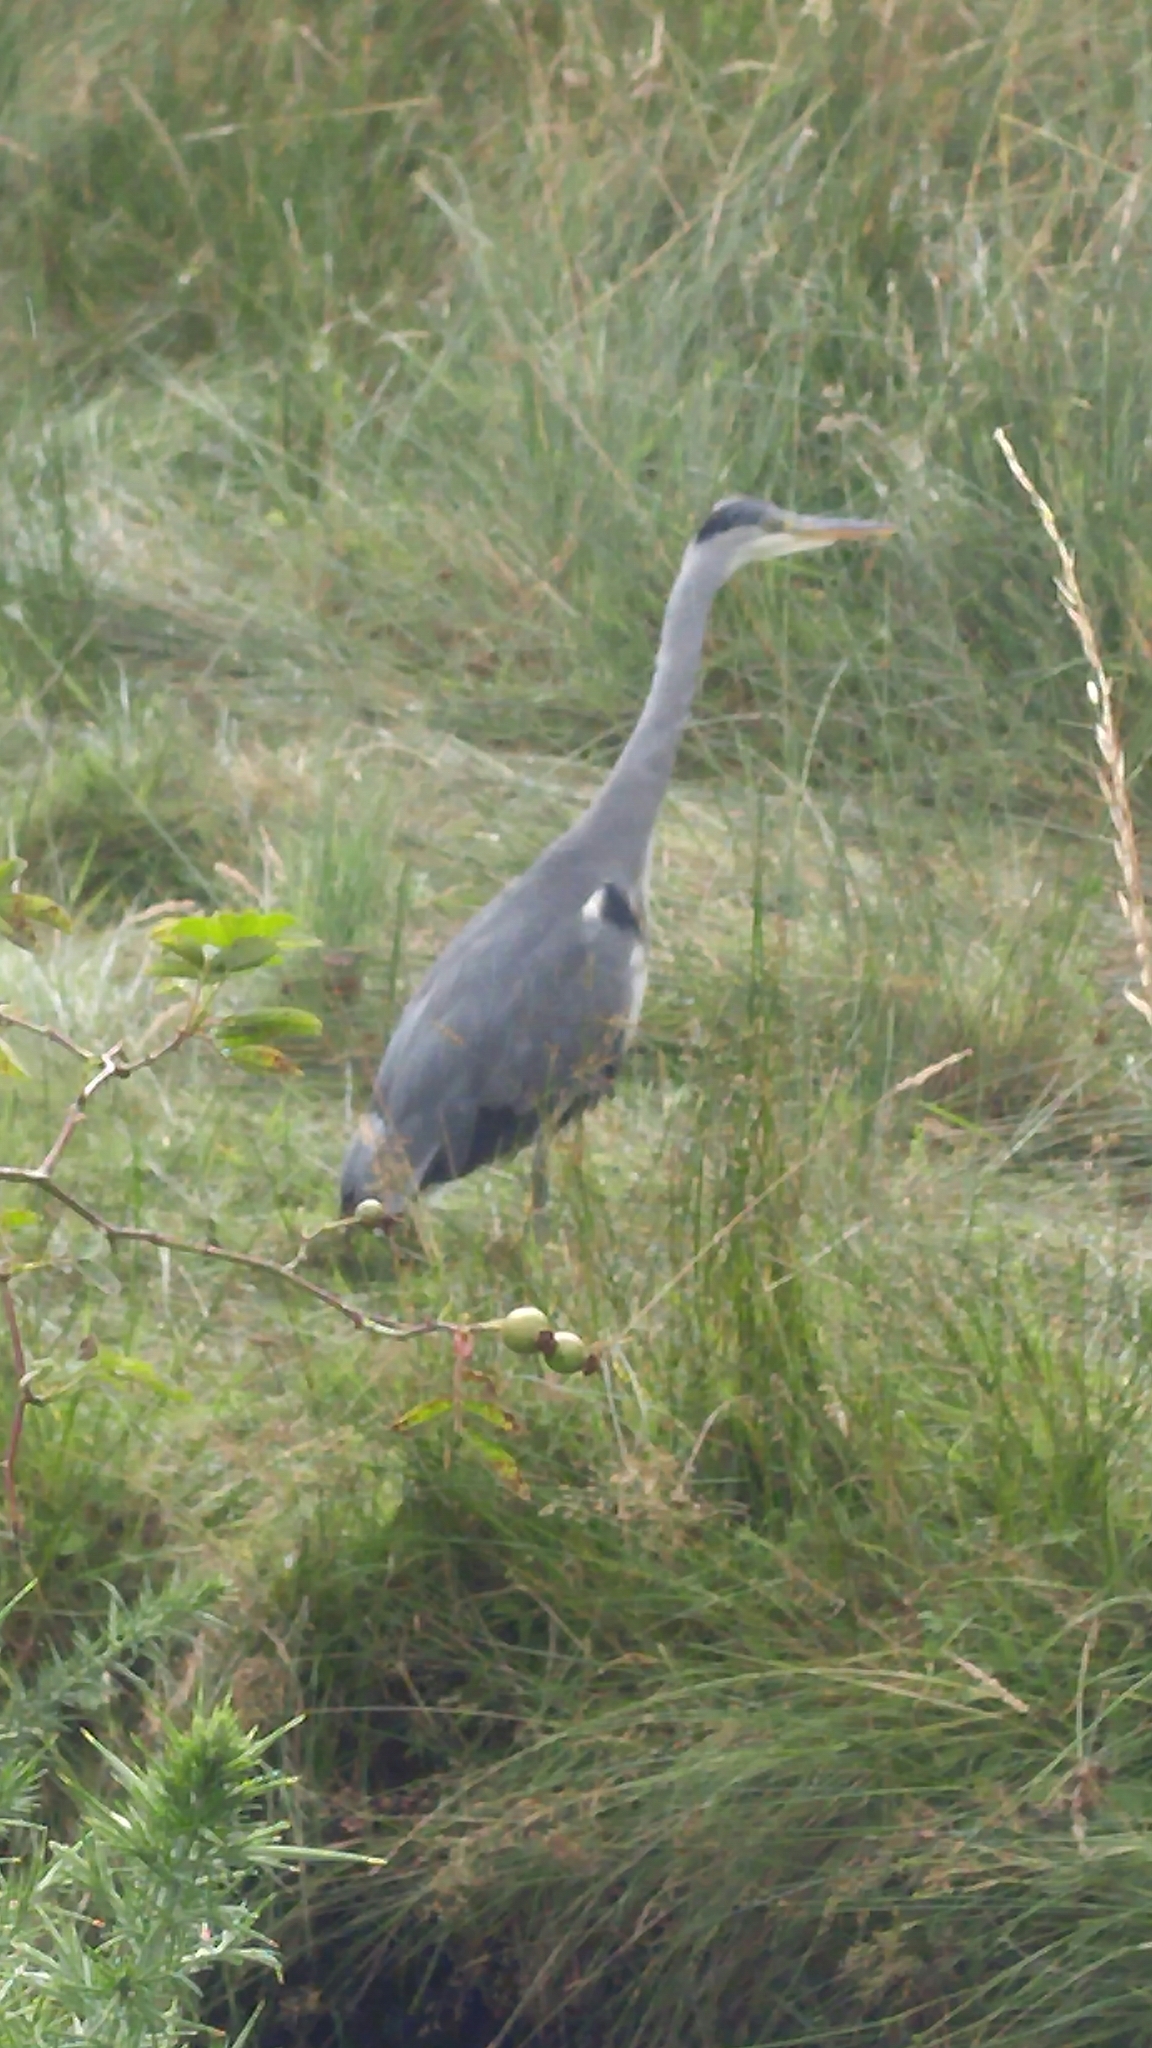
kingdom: Animalia
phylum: Chordata
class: Aves
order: Pelecaniformes
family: Ardeidae
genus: Ardea
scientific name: Ardea cinerea
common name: Grey heron
